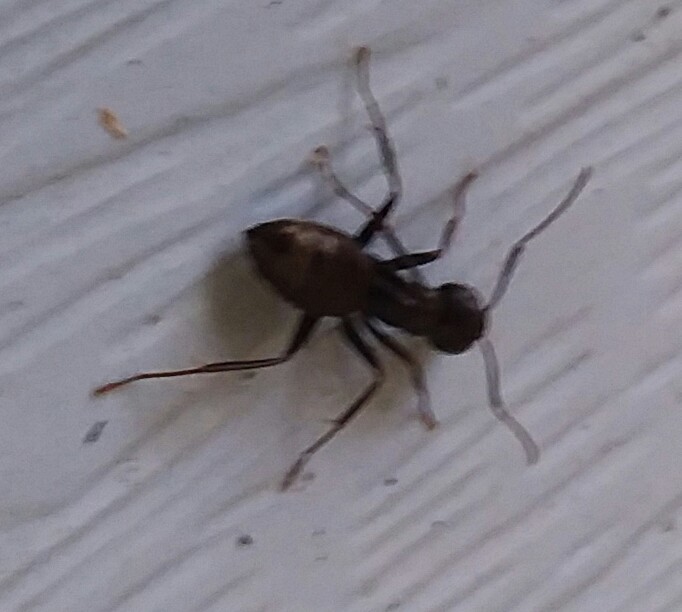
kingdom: Animalia
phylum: Arthropoda
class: Insecta
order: Hymenoptera
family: Formicidae
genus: Camponotus
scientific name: Camponotus pennsylvanicus
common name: Black carpenter ant
